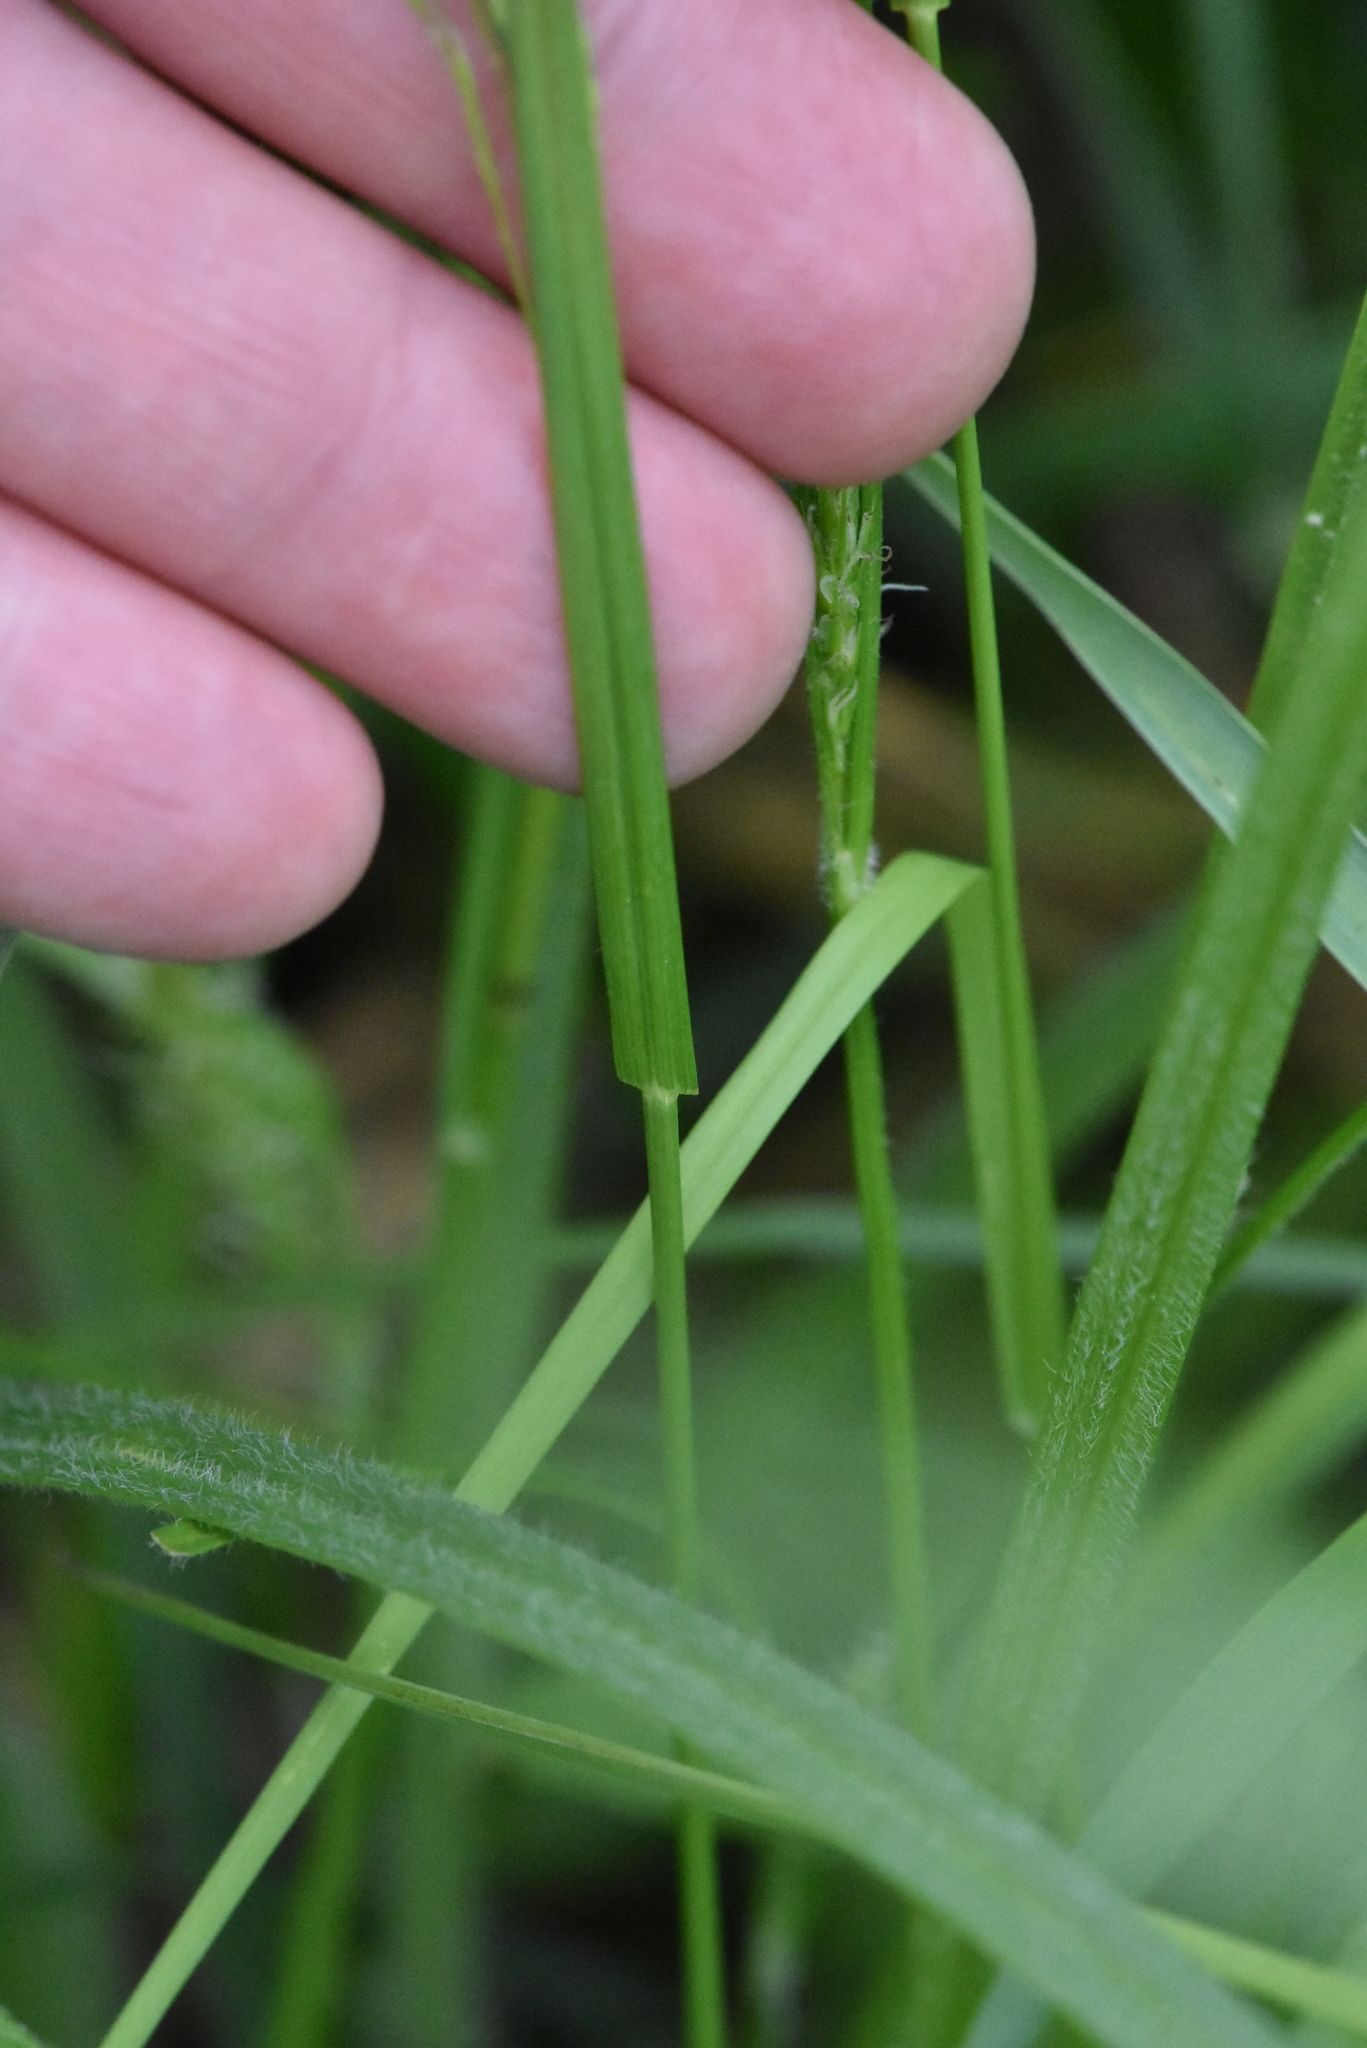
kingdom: Plantae
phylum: Tracheophyta
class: Liliopsida
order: Poales
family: Poaceae
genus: Poa
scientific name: Poa palustris
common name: Swamp meadow-grass
